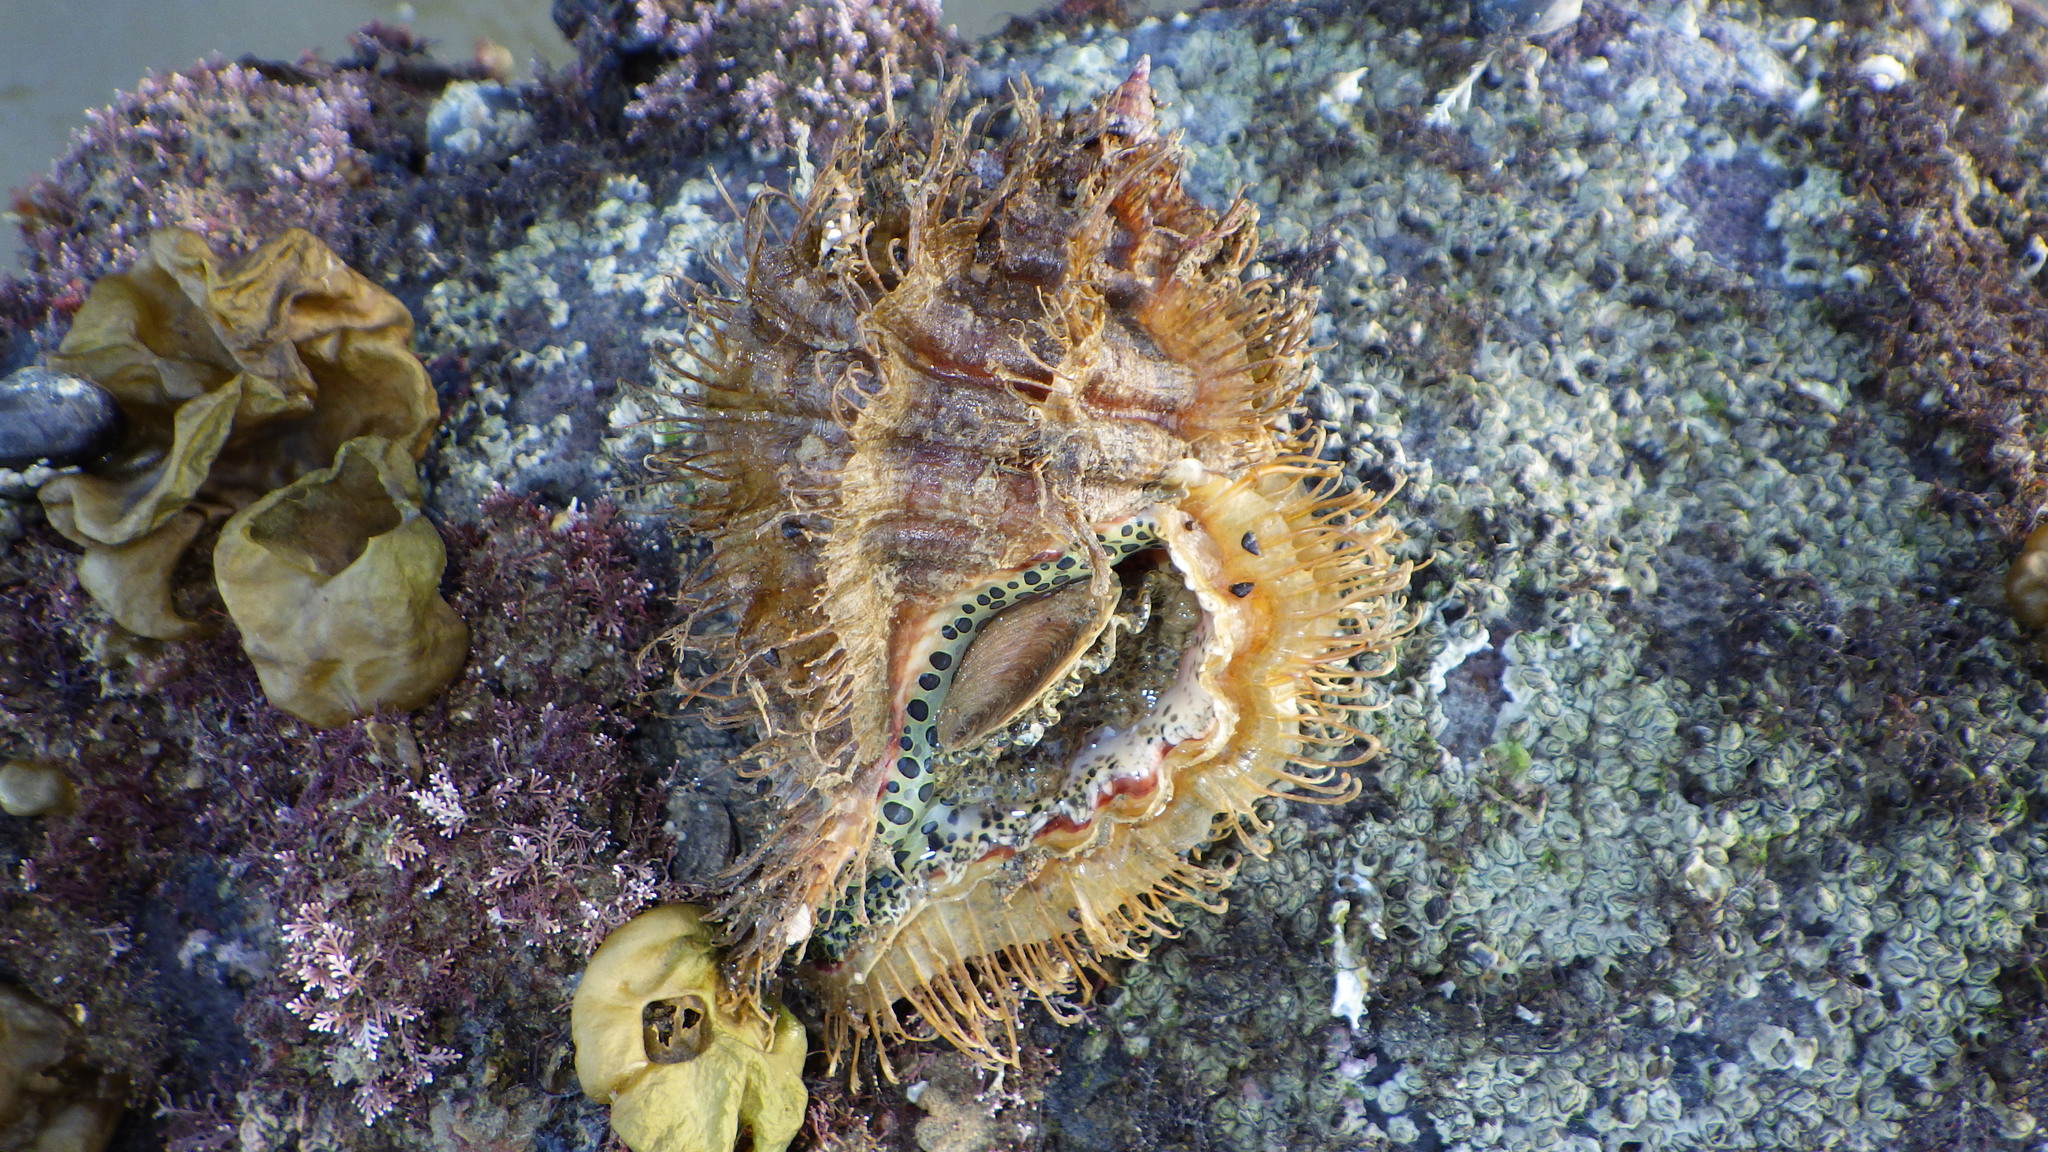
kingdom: Animalia
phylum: Mollusca
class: Gastropoda
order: Littorinimorpha
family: Cymatiidae
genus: Monoplex
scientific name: Monoplex parthenopeus
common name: Giant triton
